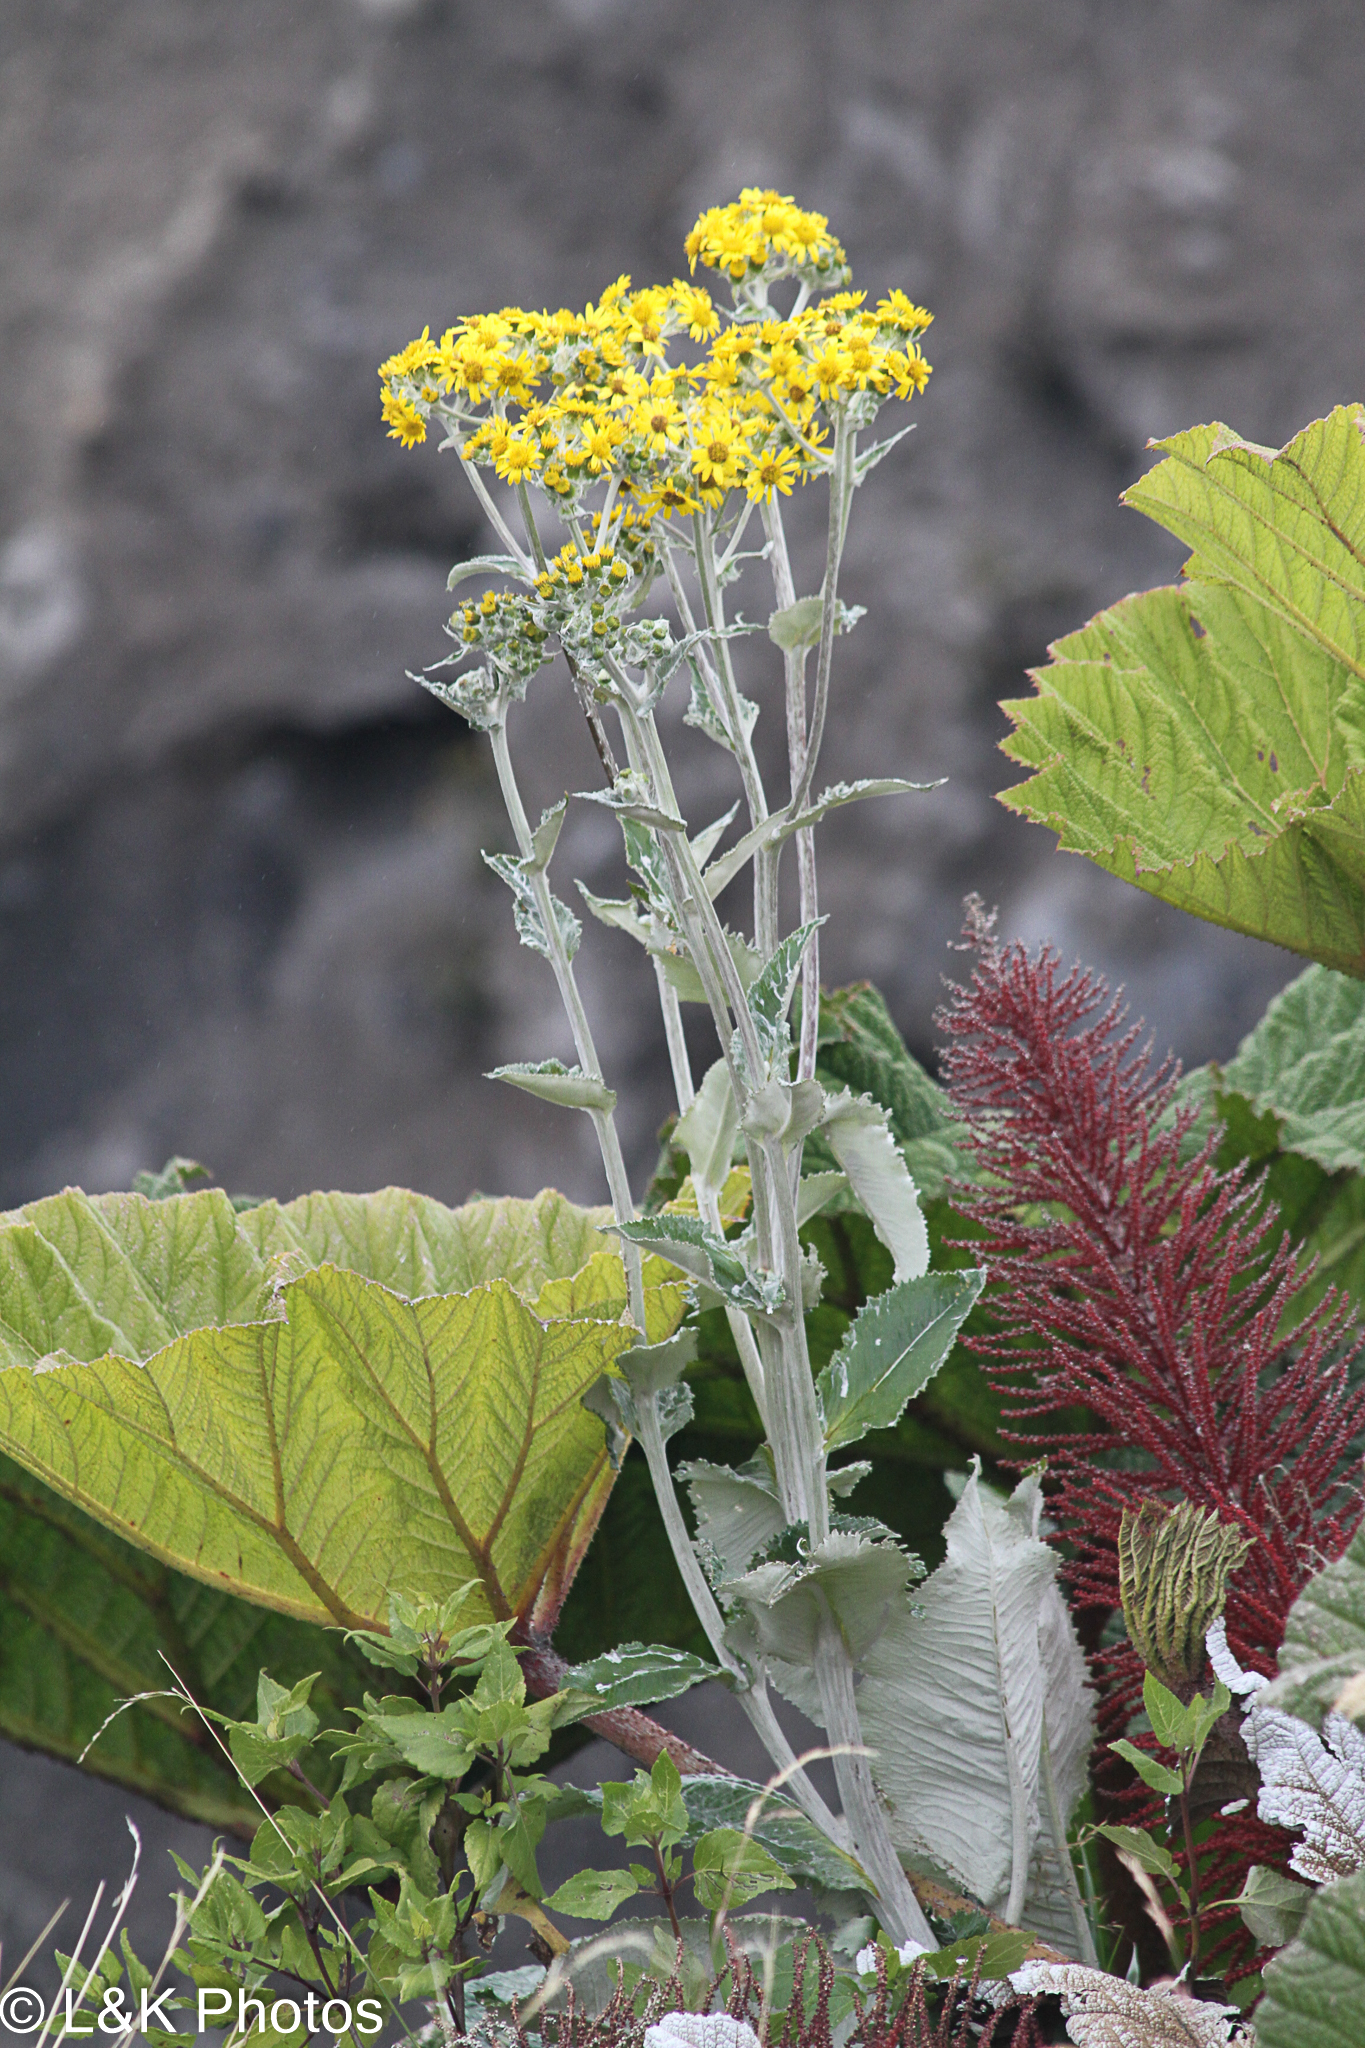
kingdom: Plantae
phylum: Tracheophyta
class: Magnoliopsida
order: Asterales
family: Asteraceae
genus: Senecio
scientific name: Senecio oerstedianus
